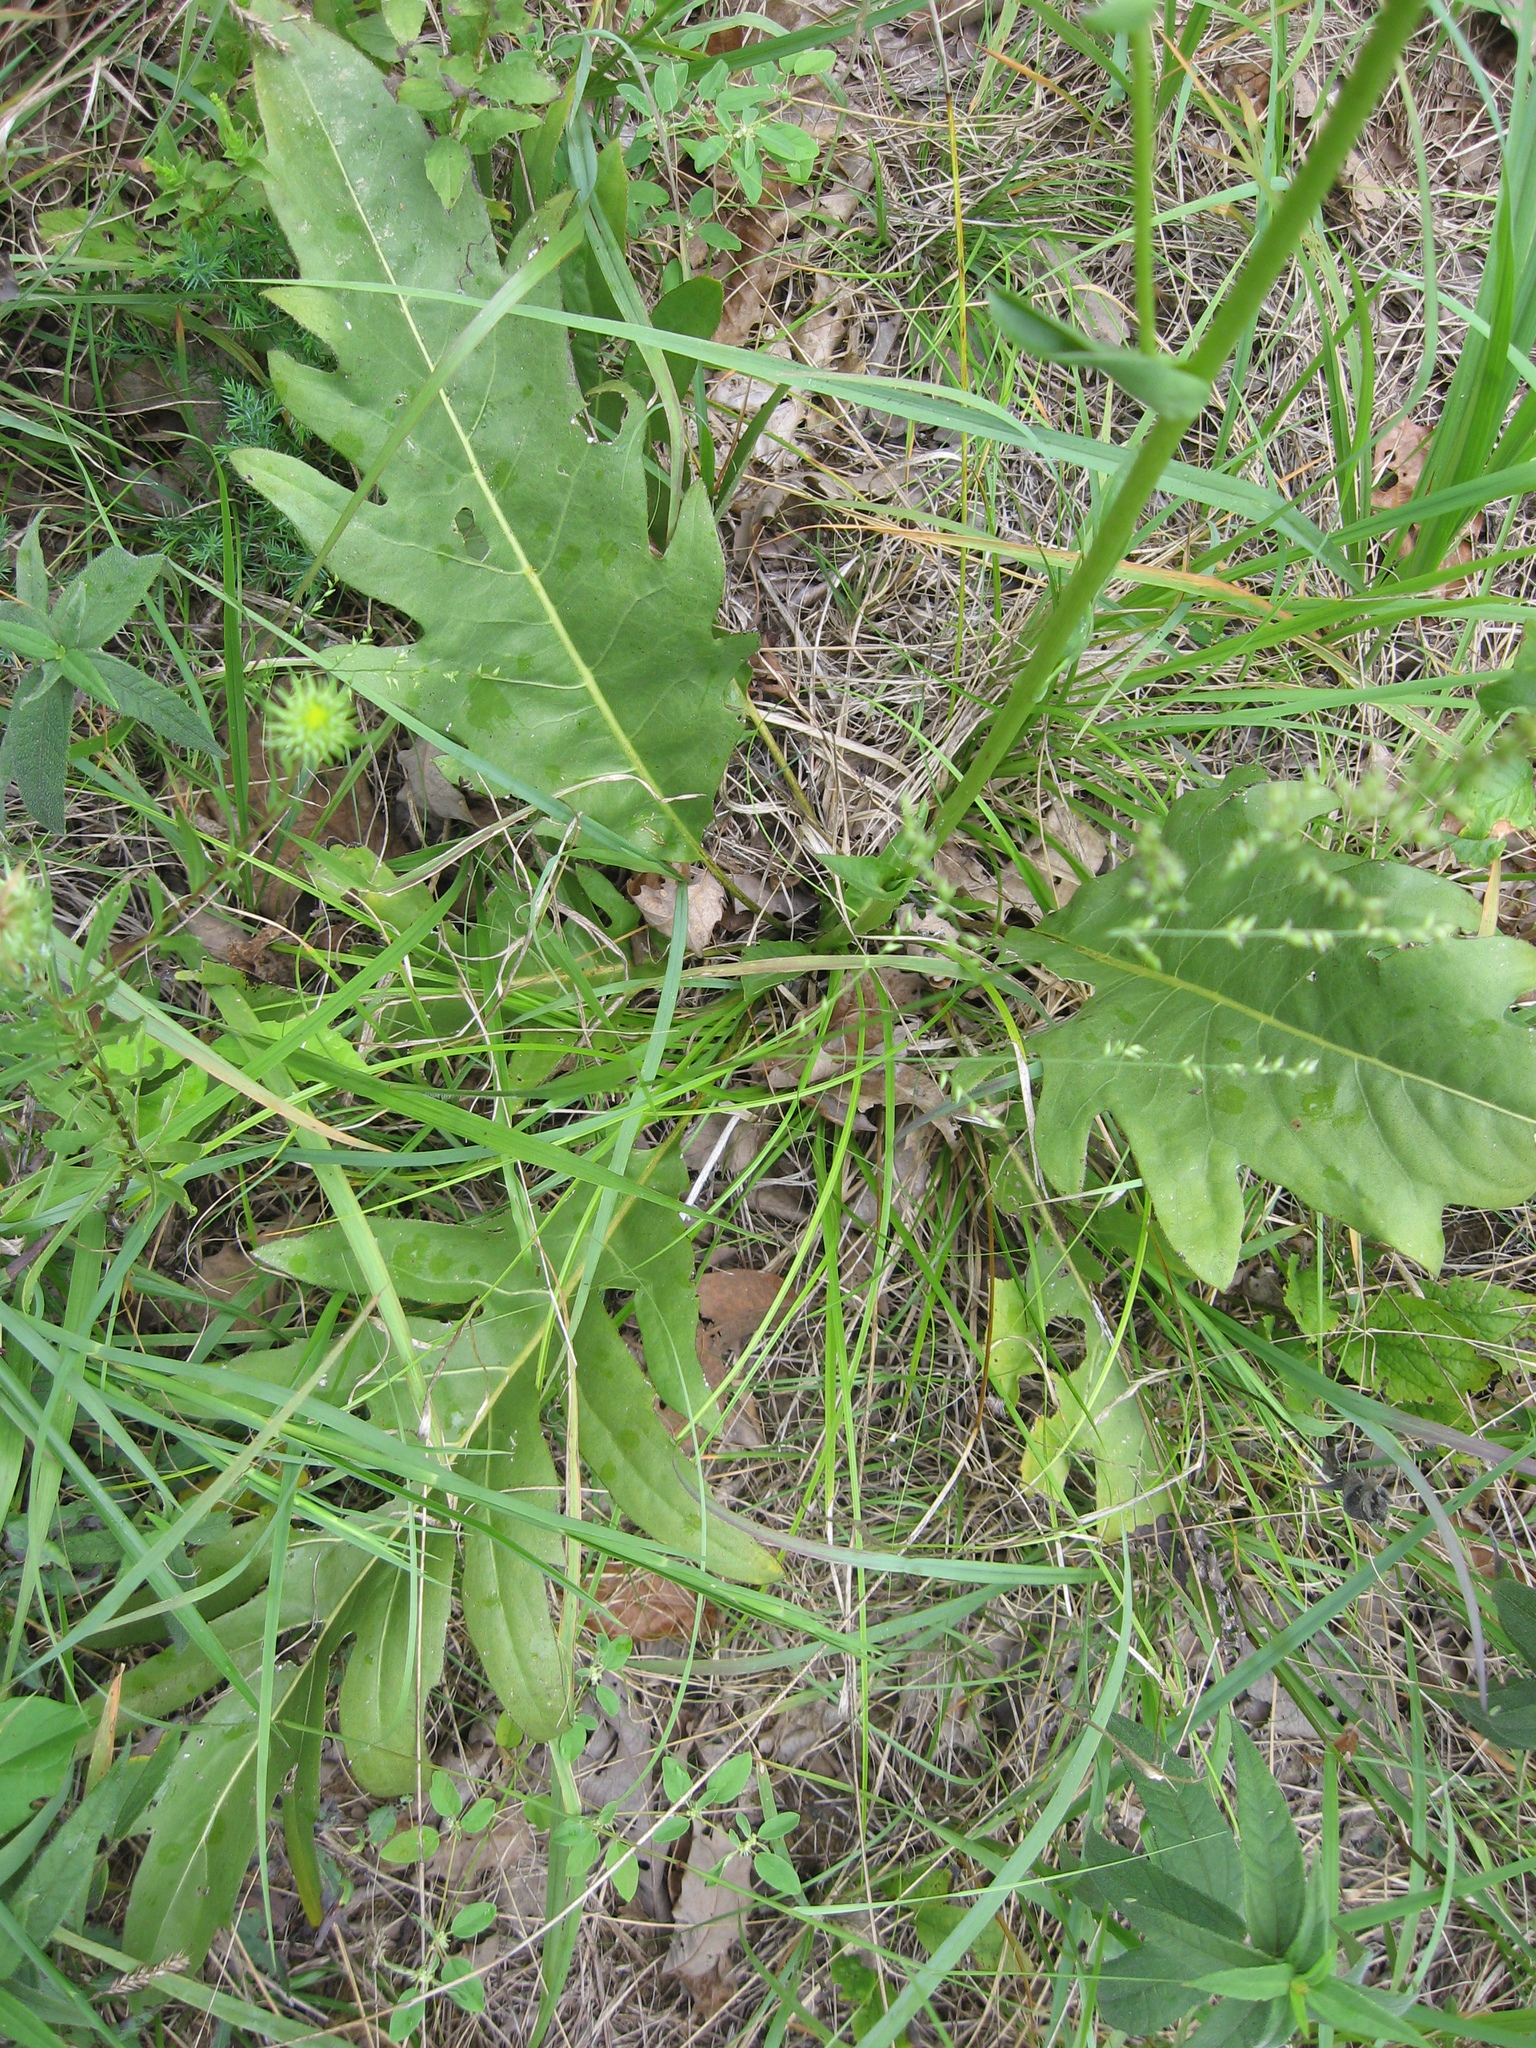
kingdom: Plantae
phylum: Tracheophyta
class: Magnoliopsida
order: Asterales
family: Asteraceae
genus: Silphium
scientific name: Silphium pinnatifidum
